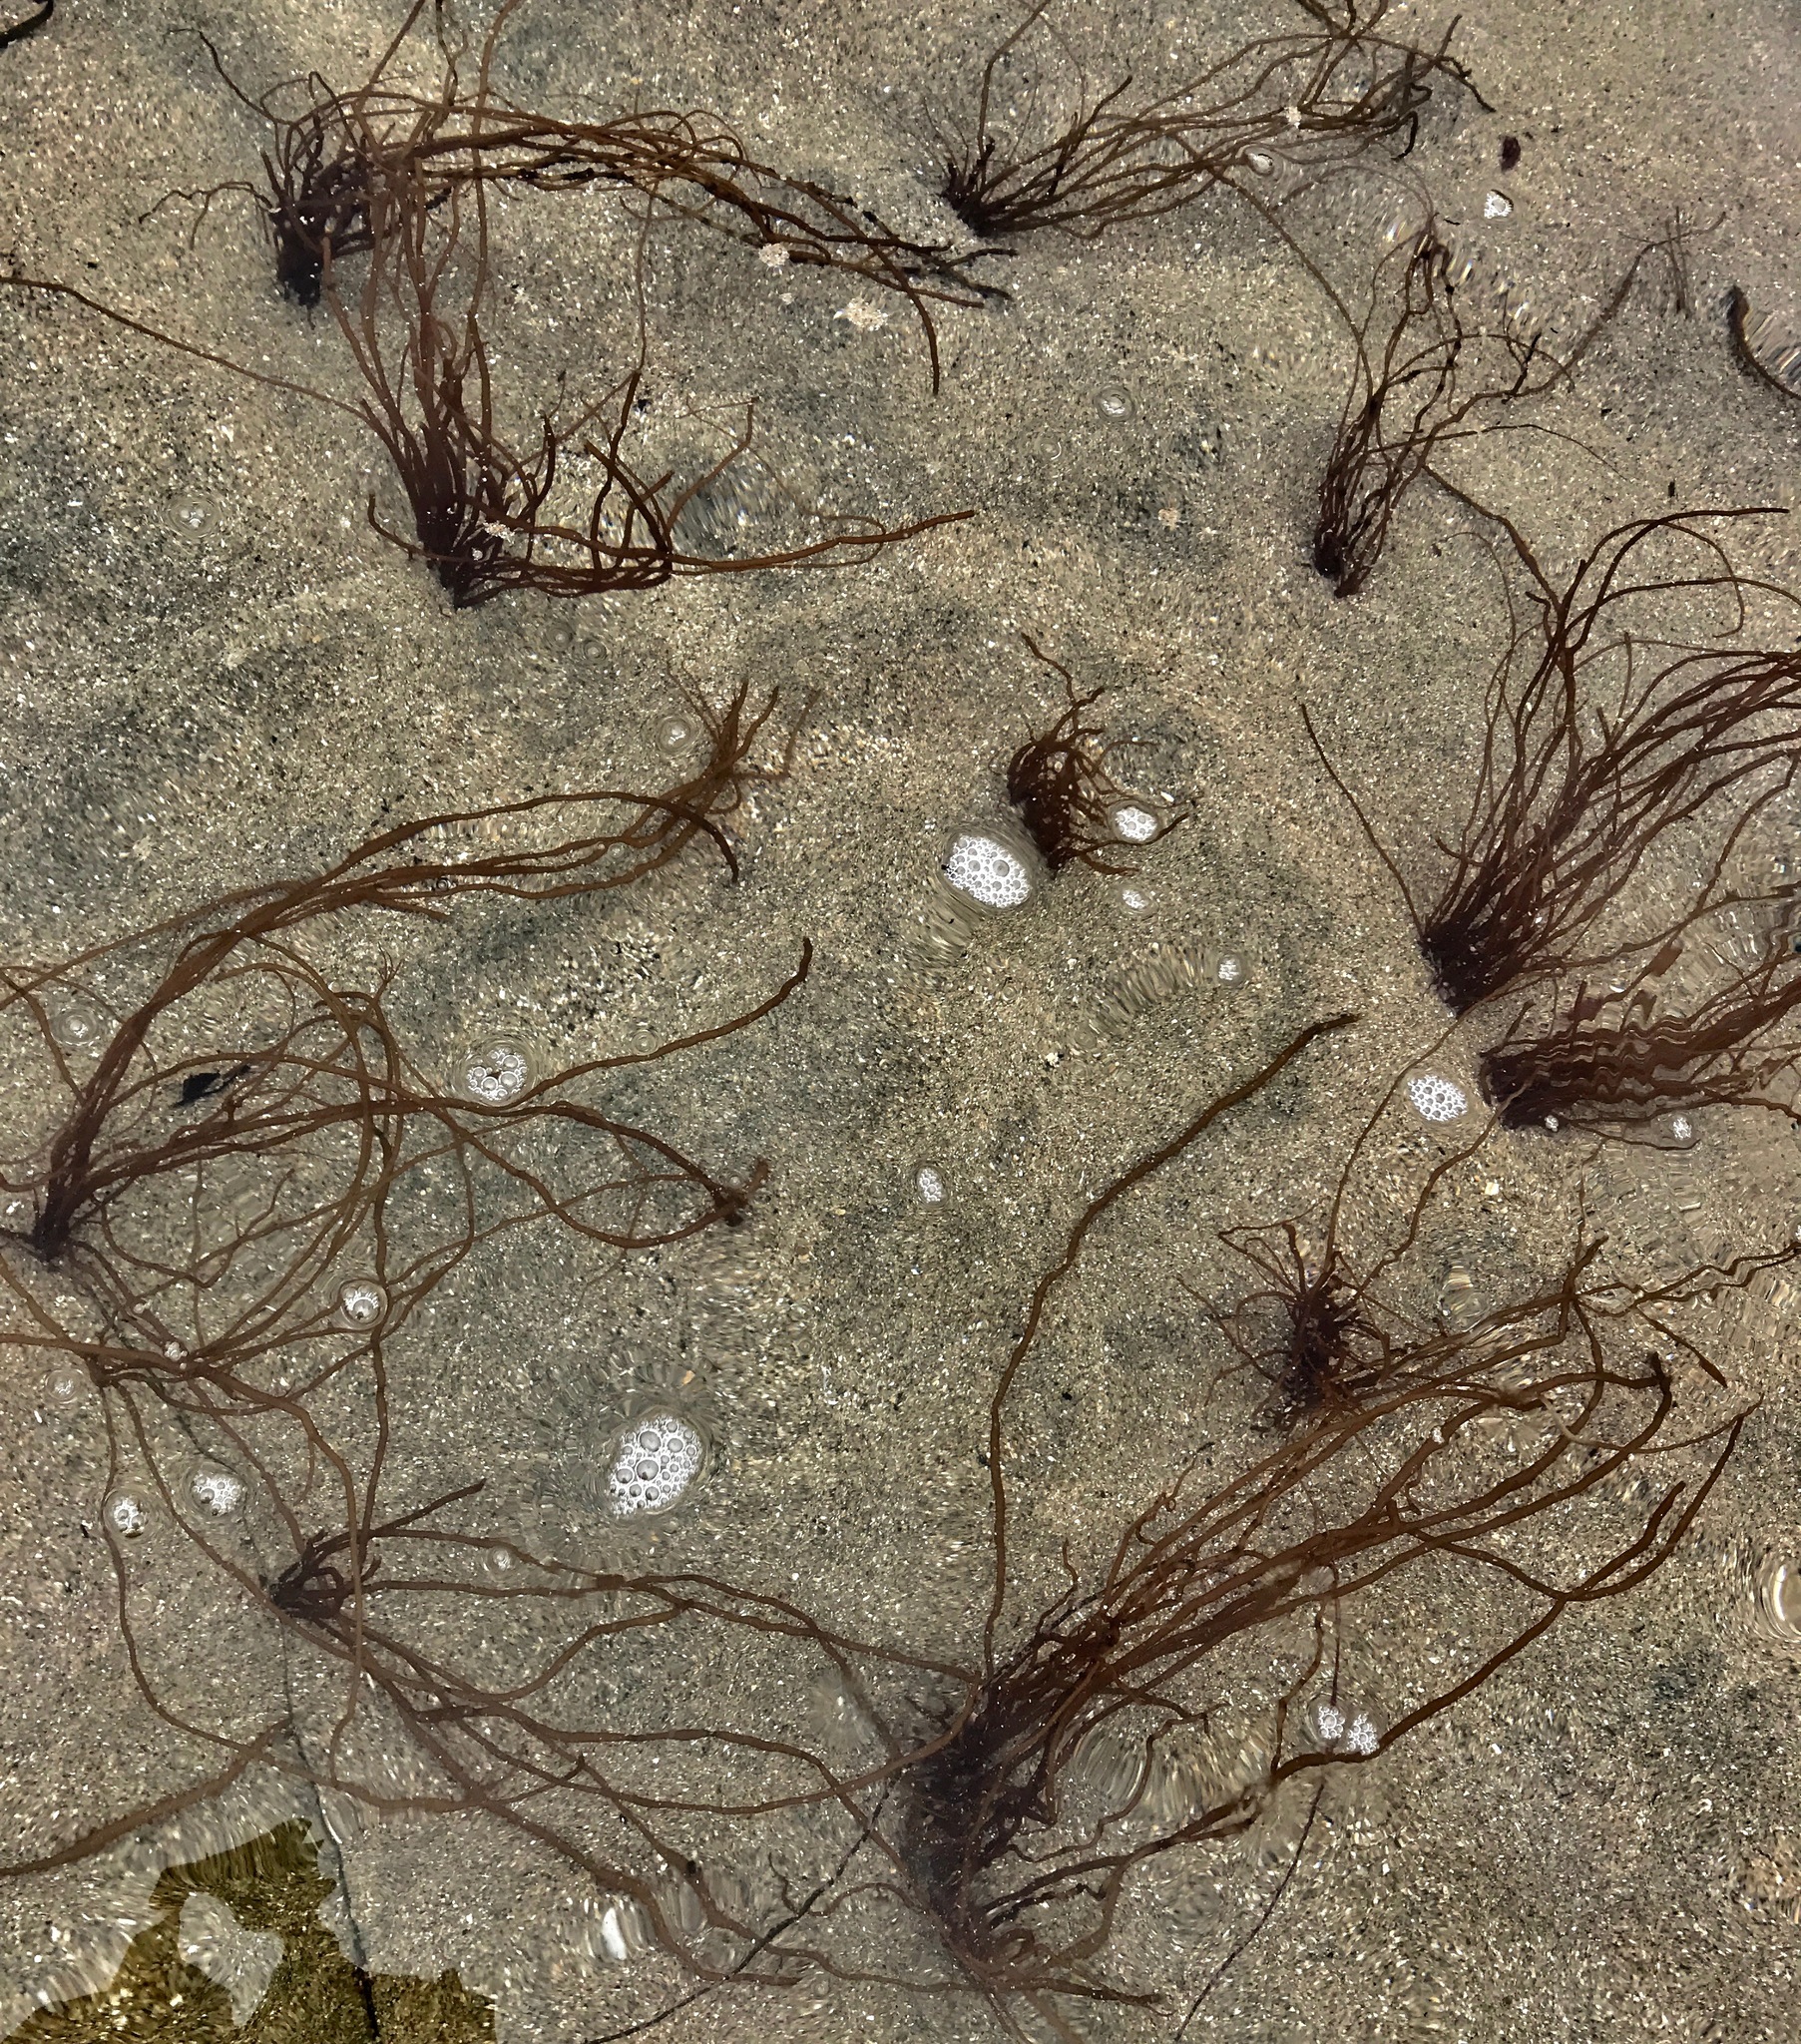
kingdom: Plantae
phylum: Rhodophyta
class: Florideophyceae
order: Gracilariales
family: Gracilariaceae
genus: Gracilariopsis
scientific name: Gracilariopsis andersonii
